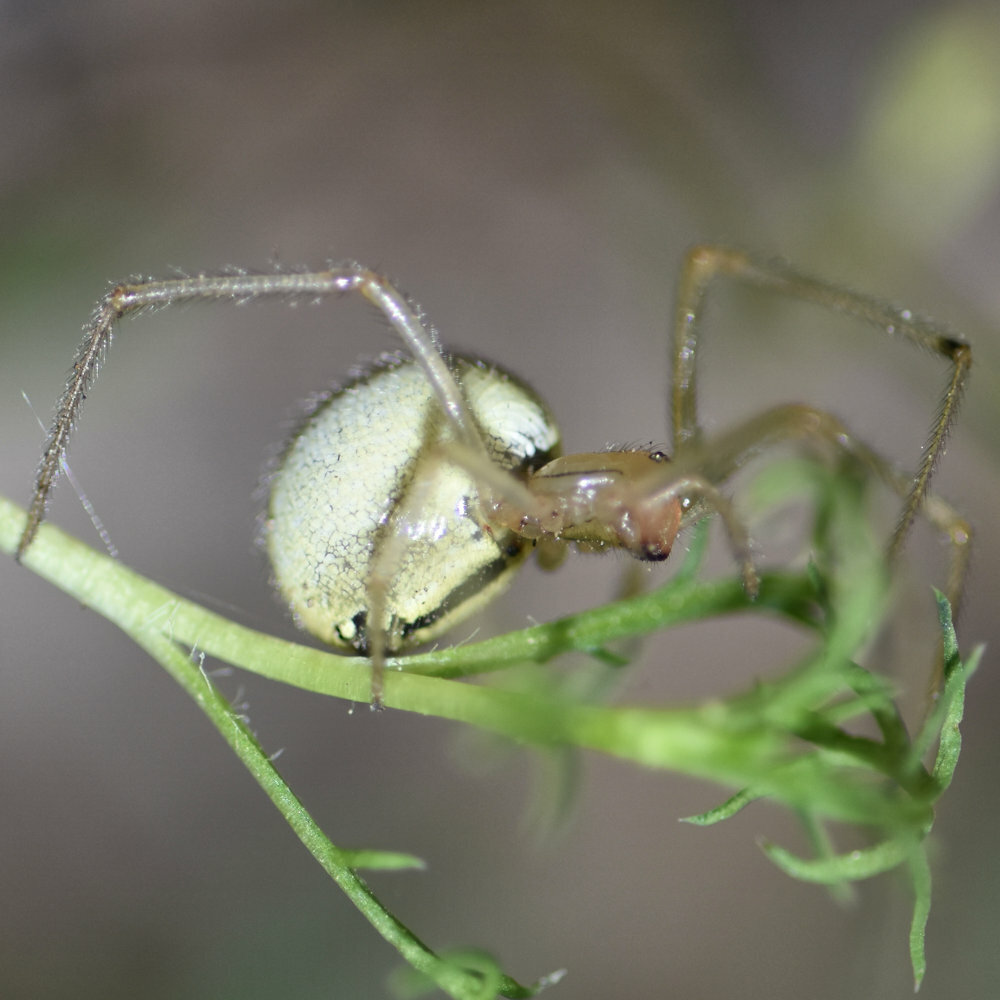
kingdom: Animalia
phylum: Arthropoda
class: Arachnida
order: Araneae
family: Theridiidae
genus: Enoplognatha
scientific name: Enoplognatha ovata
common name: Common candy-striped spider
